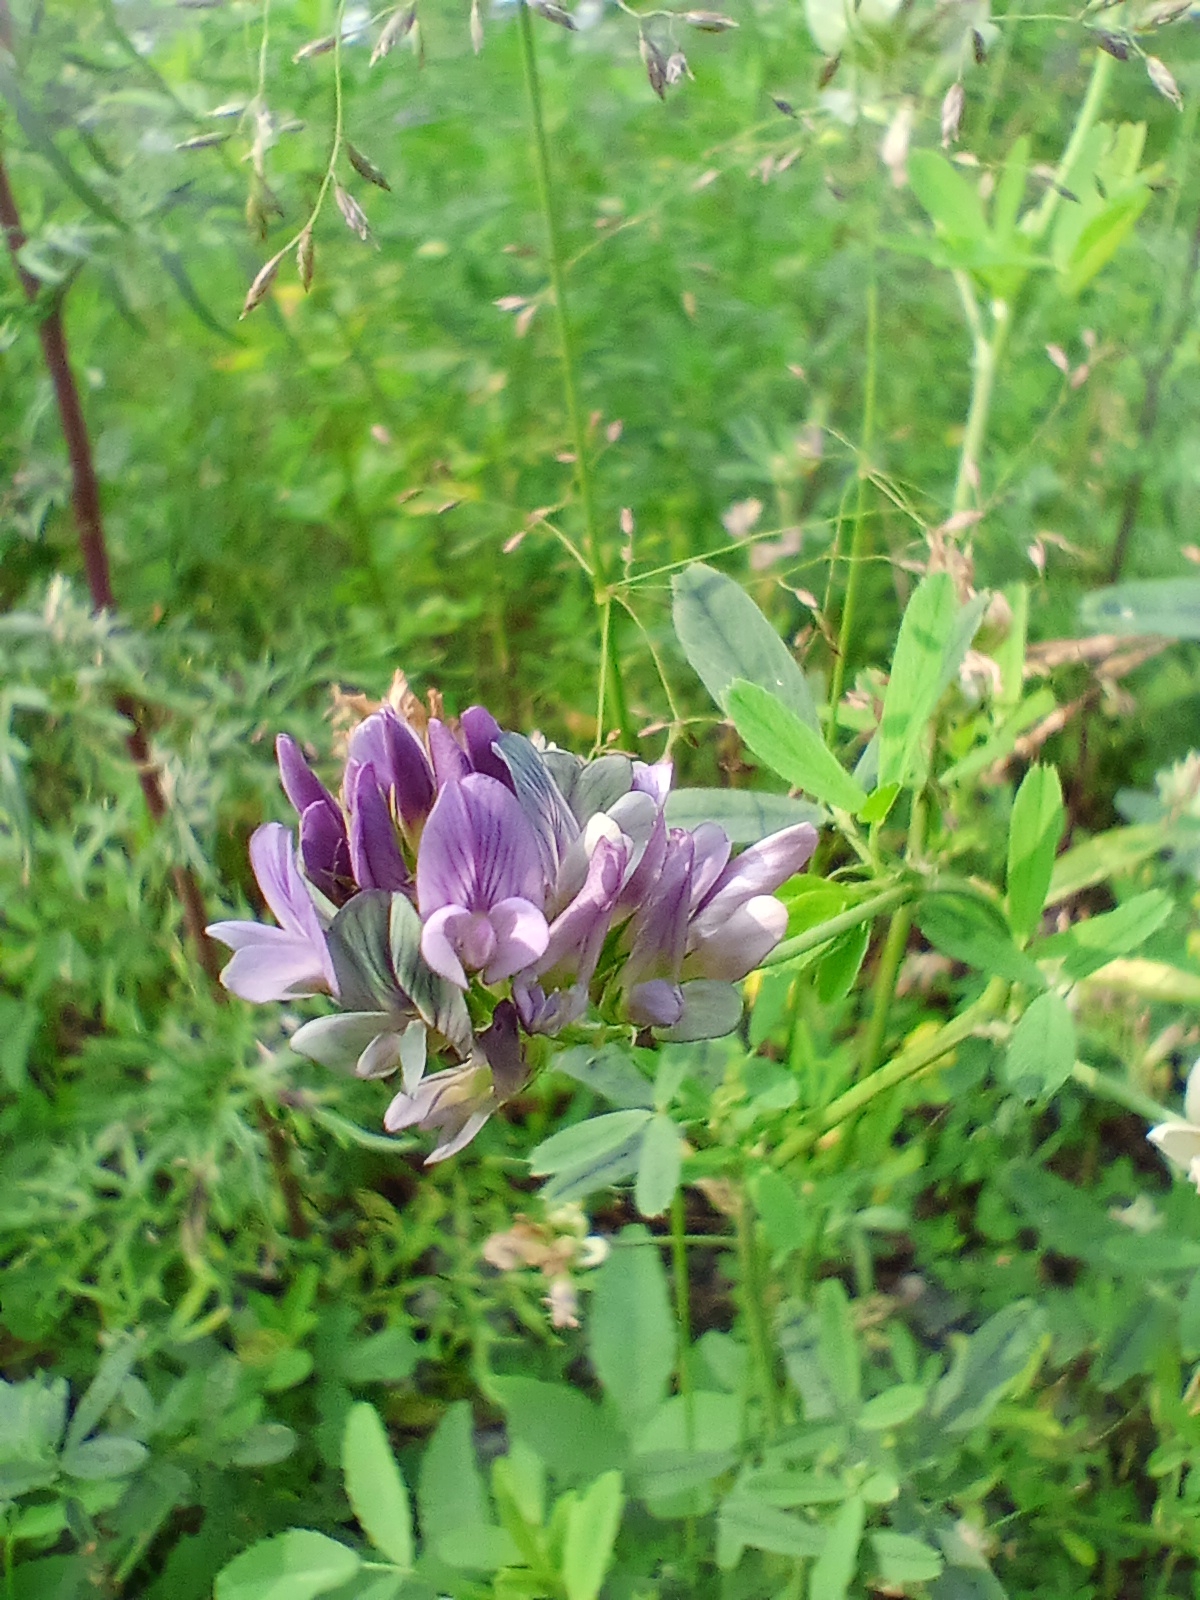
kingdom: Plantae
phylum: Tracheophyta
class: Magnoliopsida
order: Fabales
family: Fabaceae
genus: Medicago
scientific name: Medicago varia
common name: Sand lucerne
